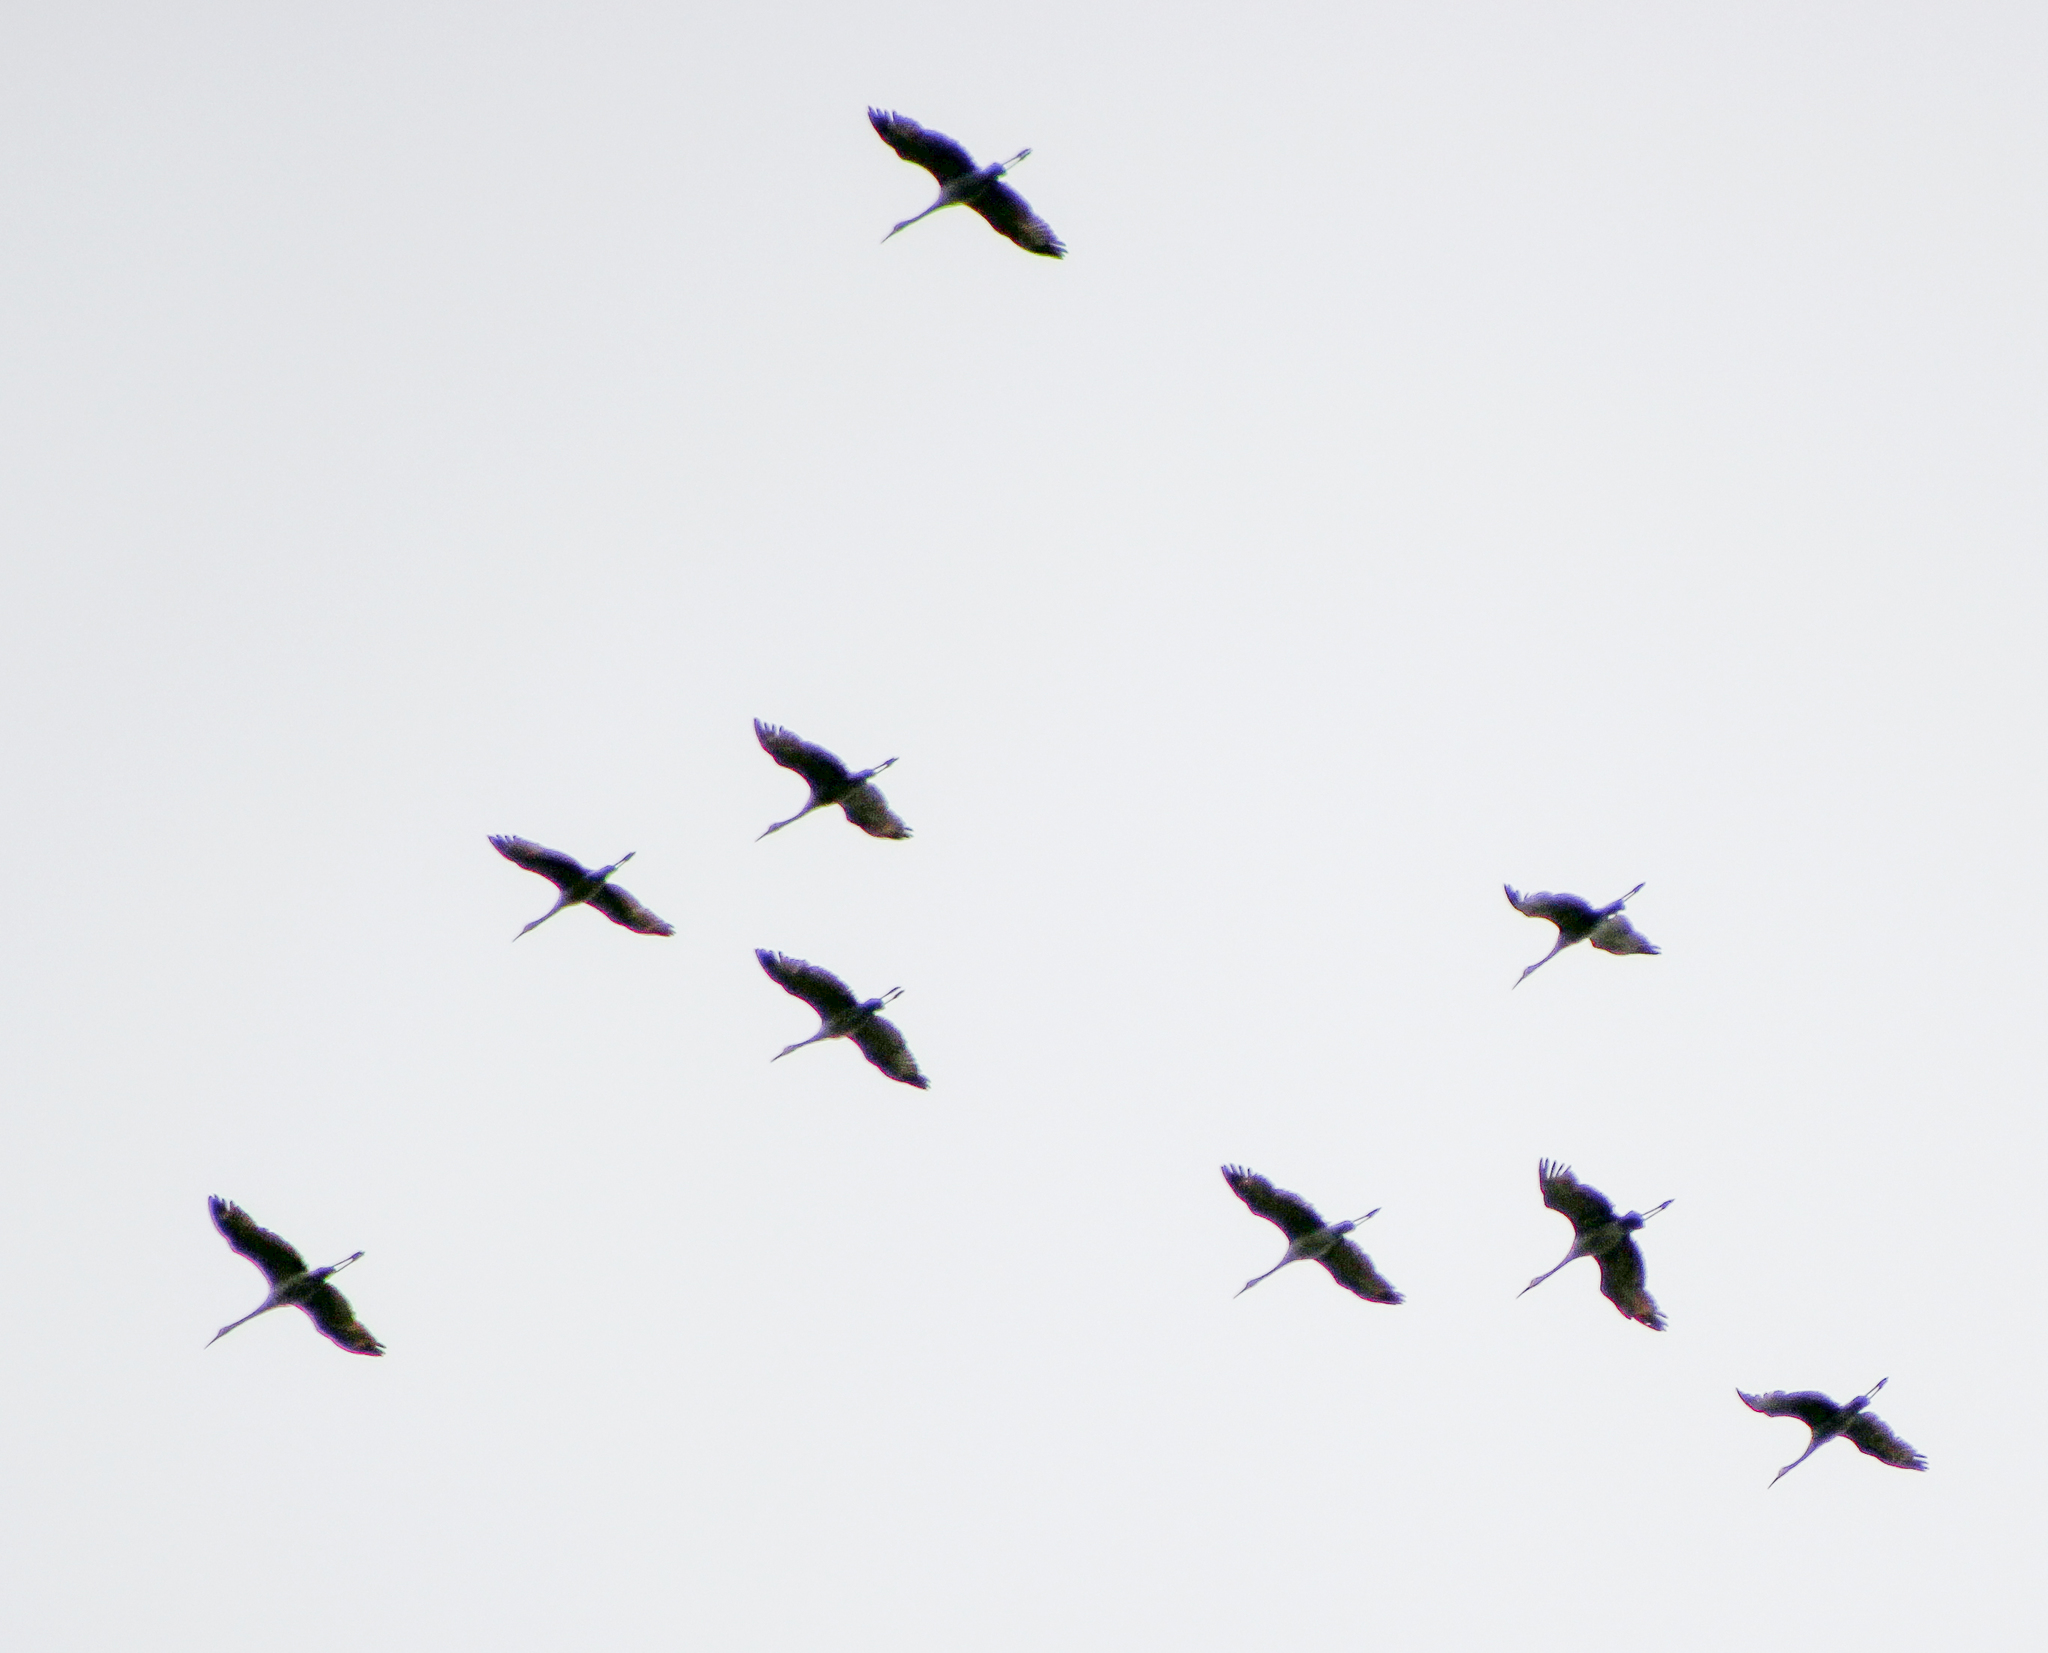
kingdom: Animalia
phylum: Chordata
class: Aves
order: Gruiformes
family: Gruidae
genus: Grus
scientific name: Grus canadensis
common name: Sandhill crane
